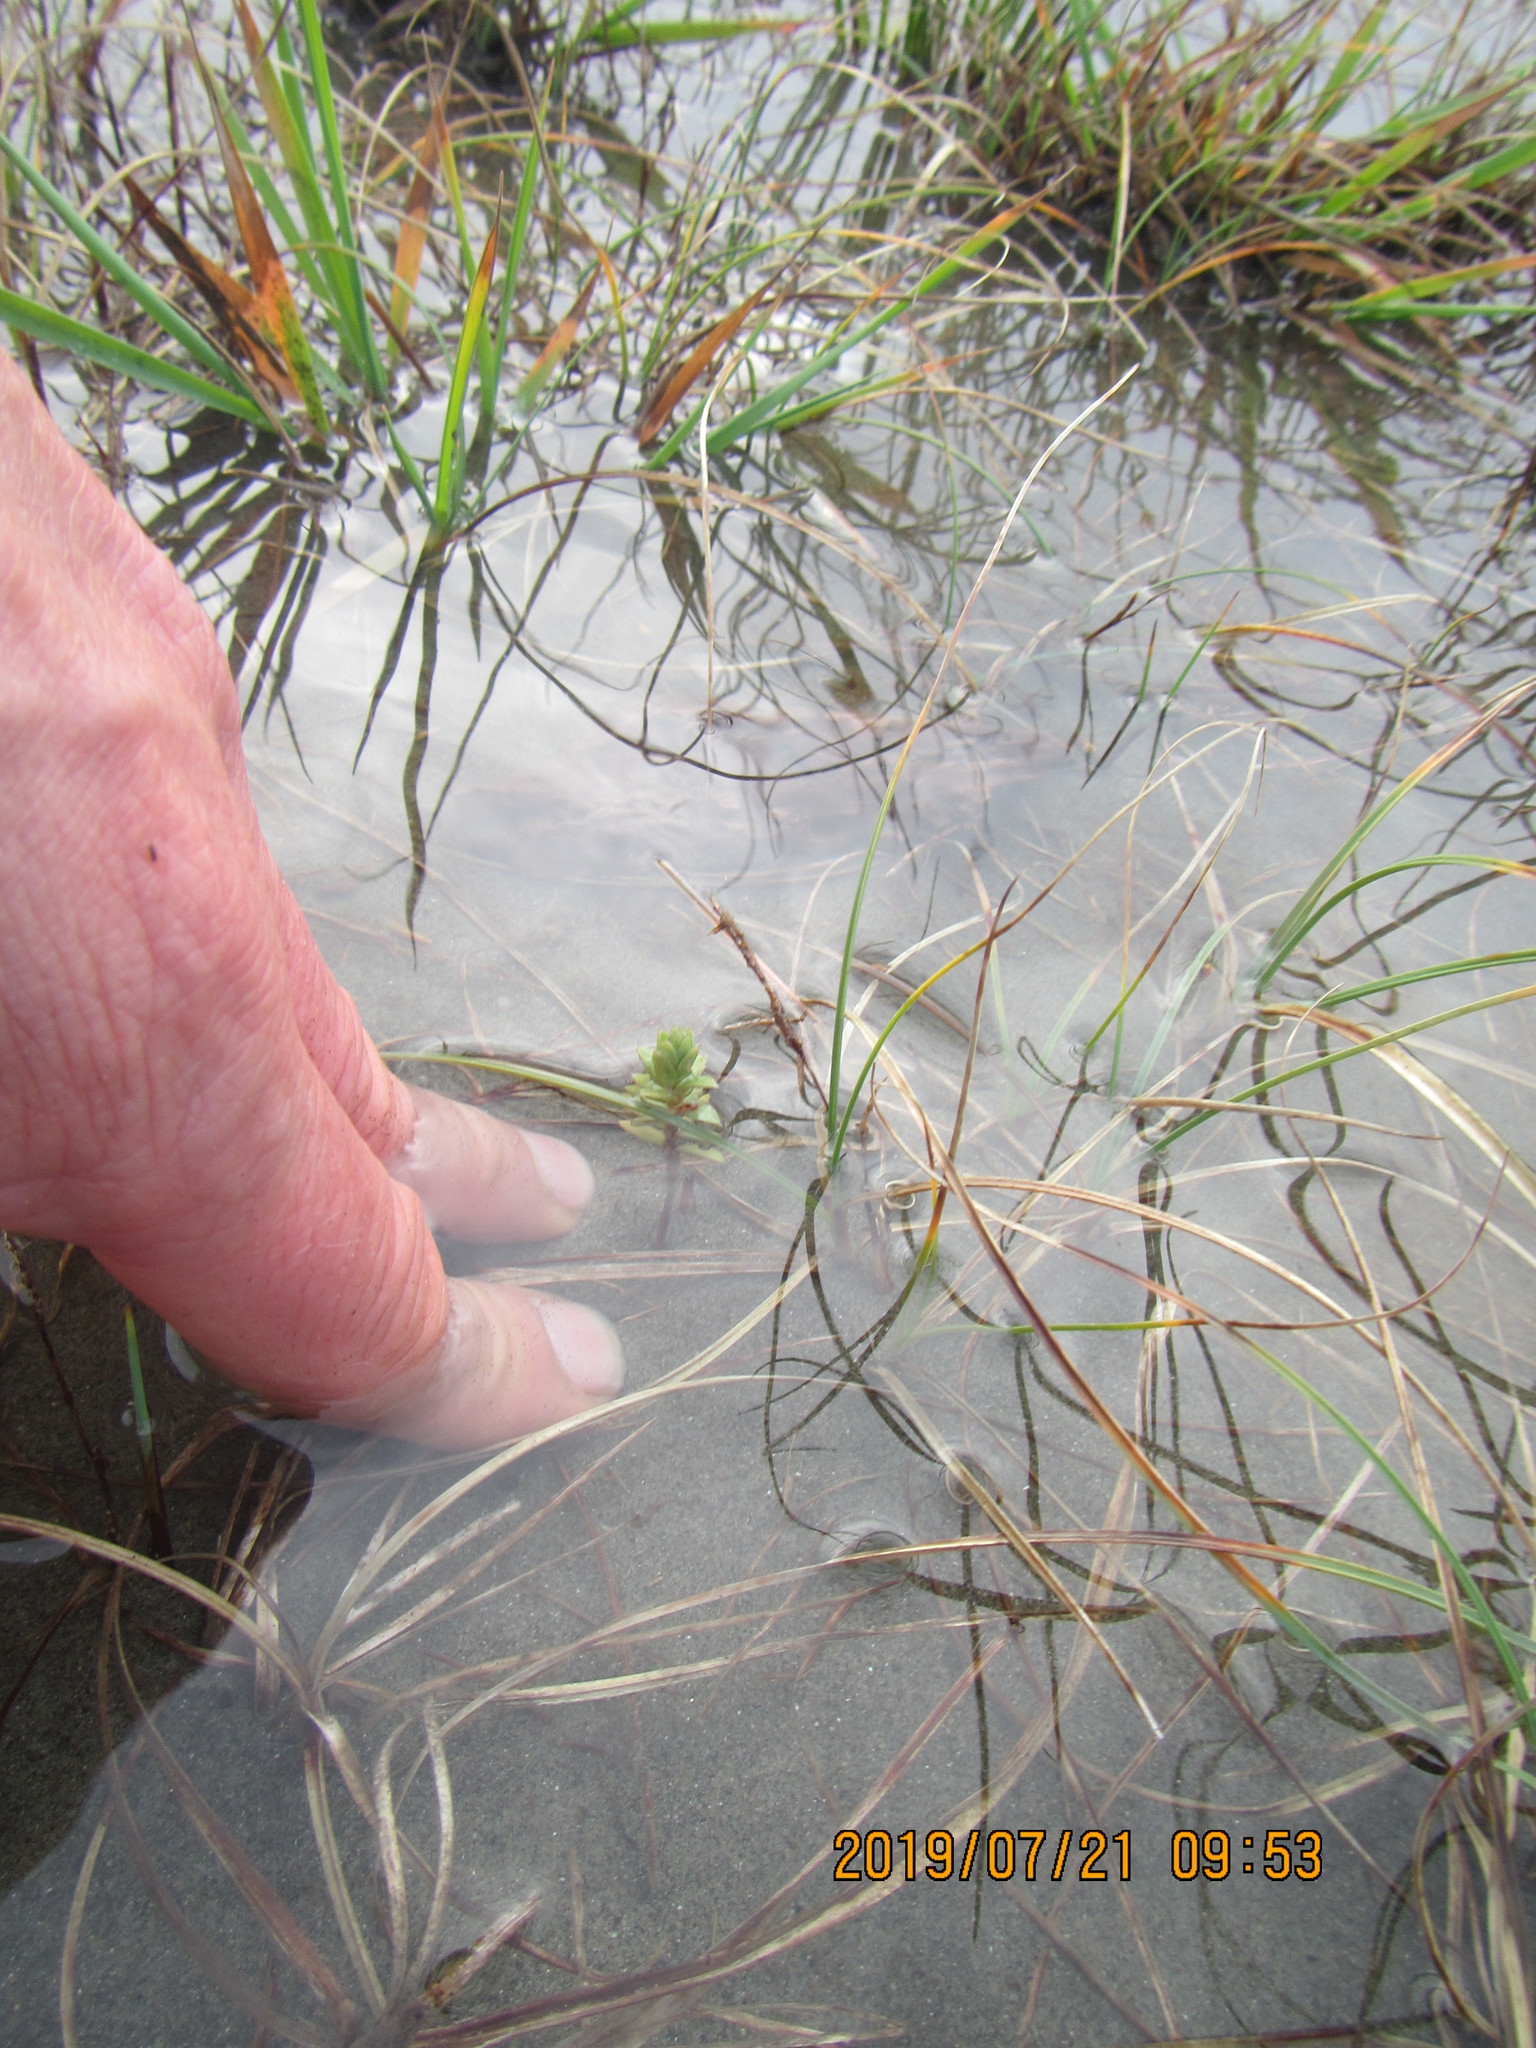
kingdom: Plantae
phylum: Tracheophyta
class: Magnoliopsida
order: Malvales
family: Thymelaeaceae
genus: Pimelea
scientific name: Pimelea villosa
